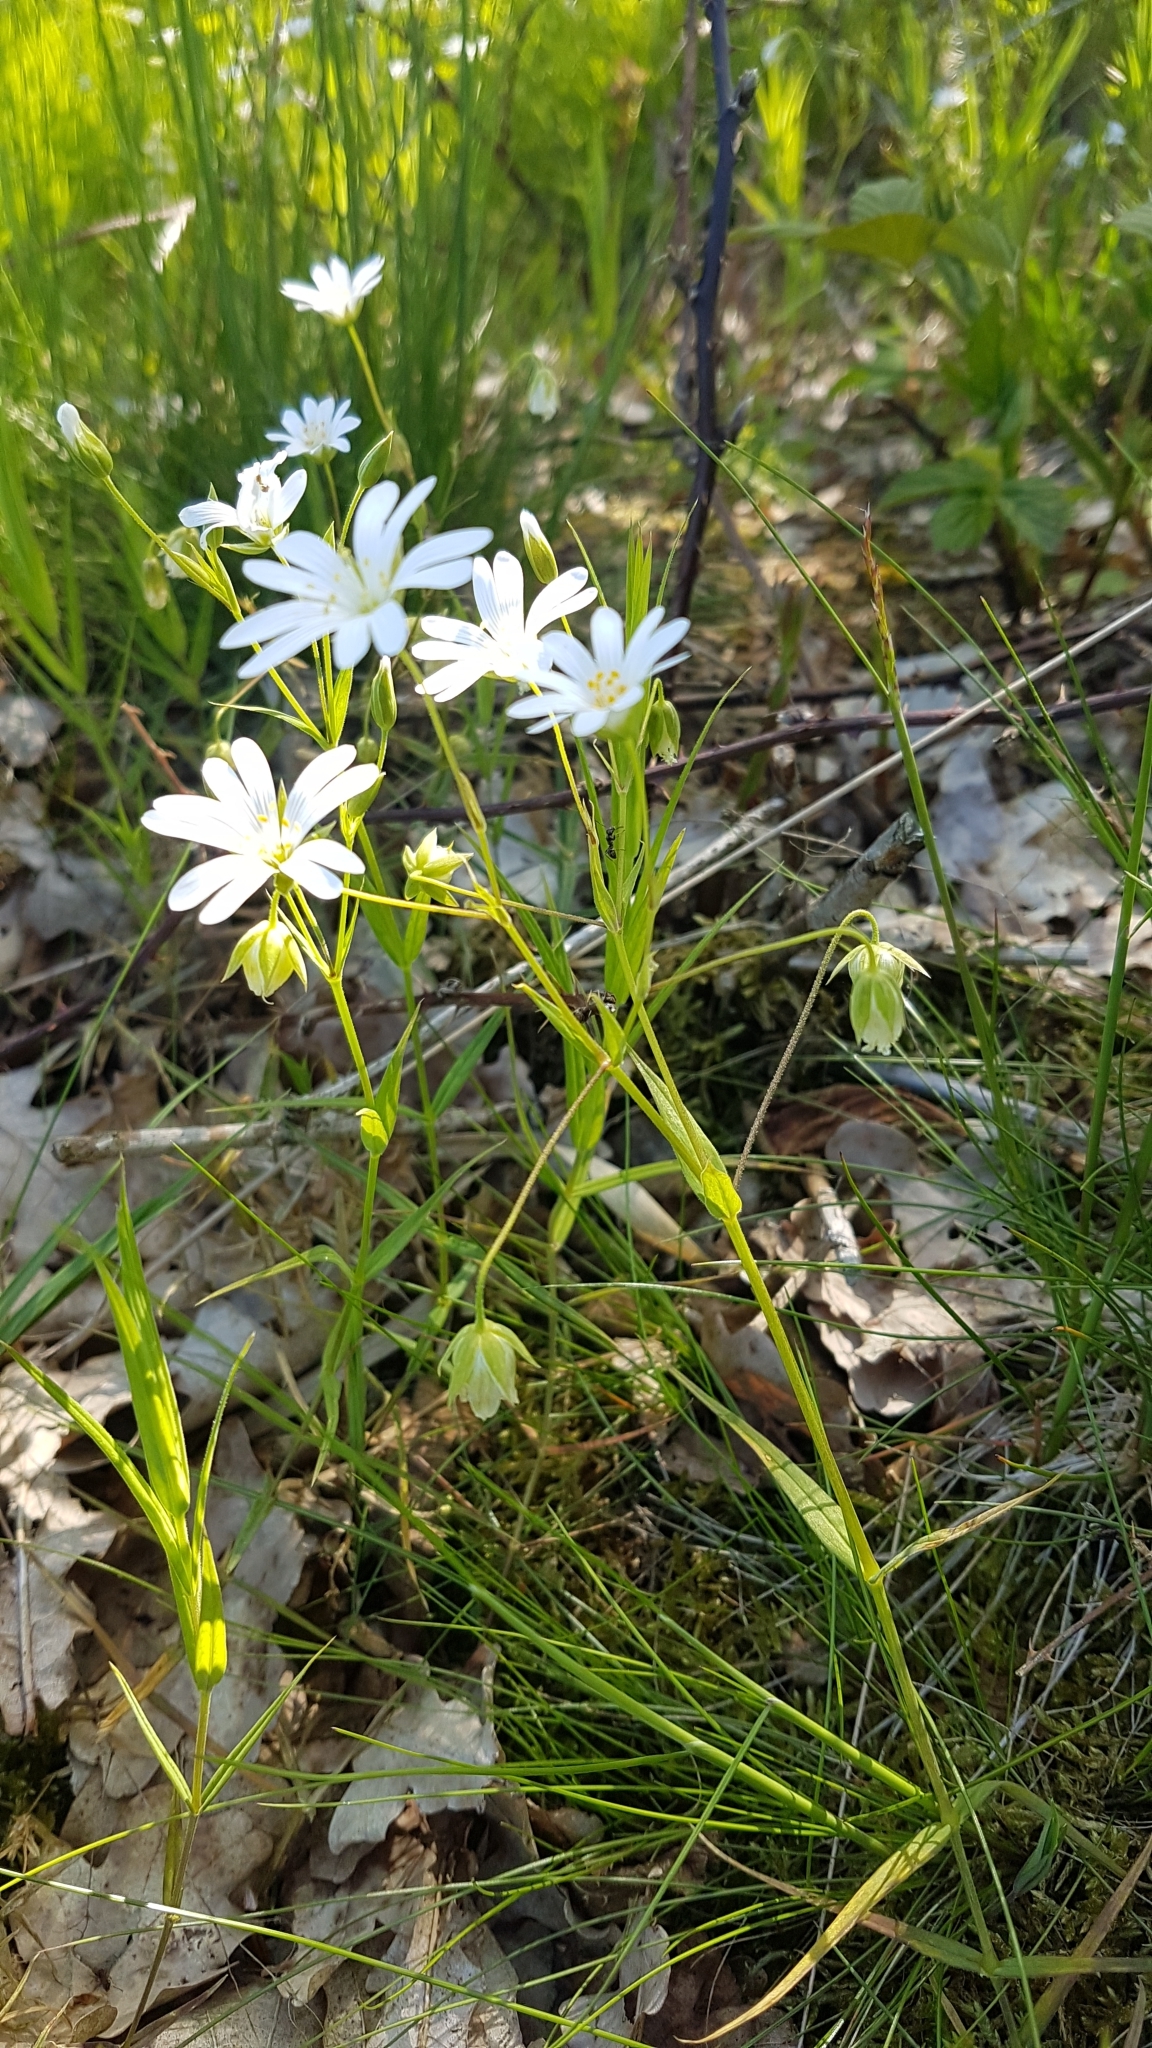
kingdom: Plantae
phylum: Tracheophyta
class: Magnoliopsida
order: Caryophyllales
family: Caryophyllaceae
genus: Rabelera
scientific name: Rabelera holostea
